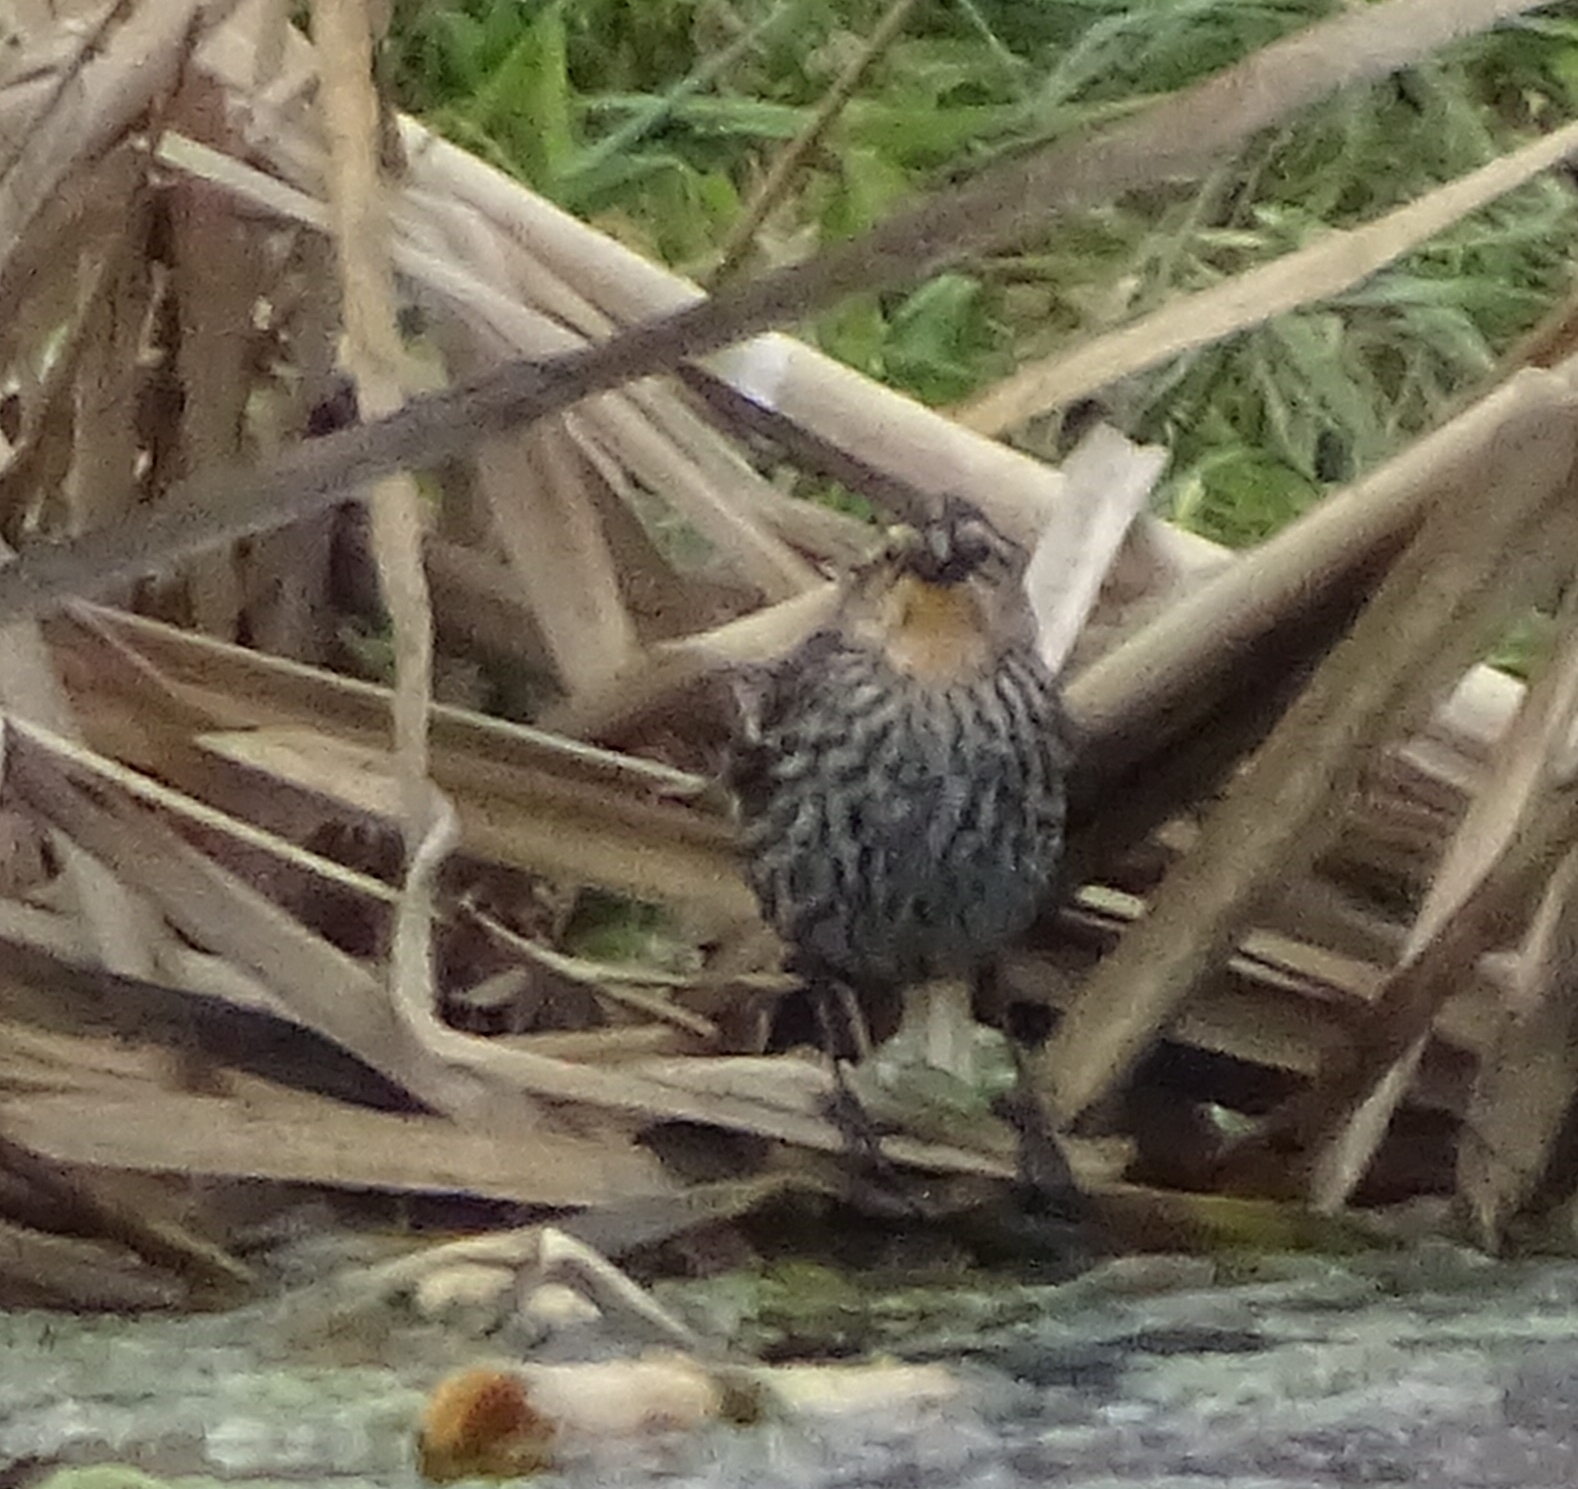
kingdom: Animalia
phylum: Chordata
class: Aves
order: Passeriformes
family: Icteridae
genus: Agelaius
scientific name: Agelaius phoeniceus
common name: Red-winged blackbird
